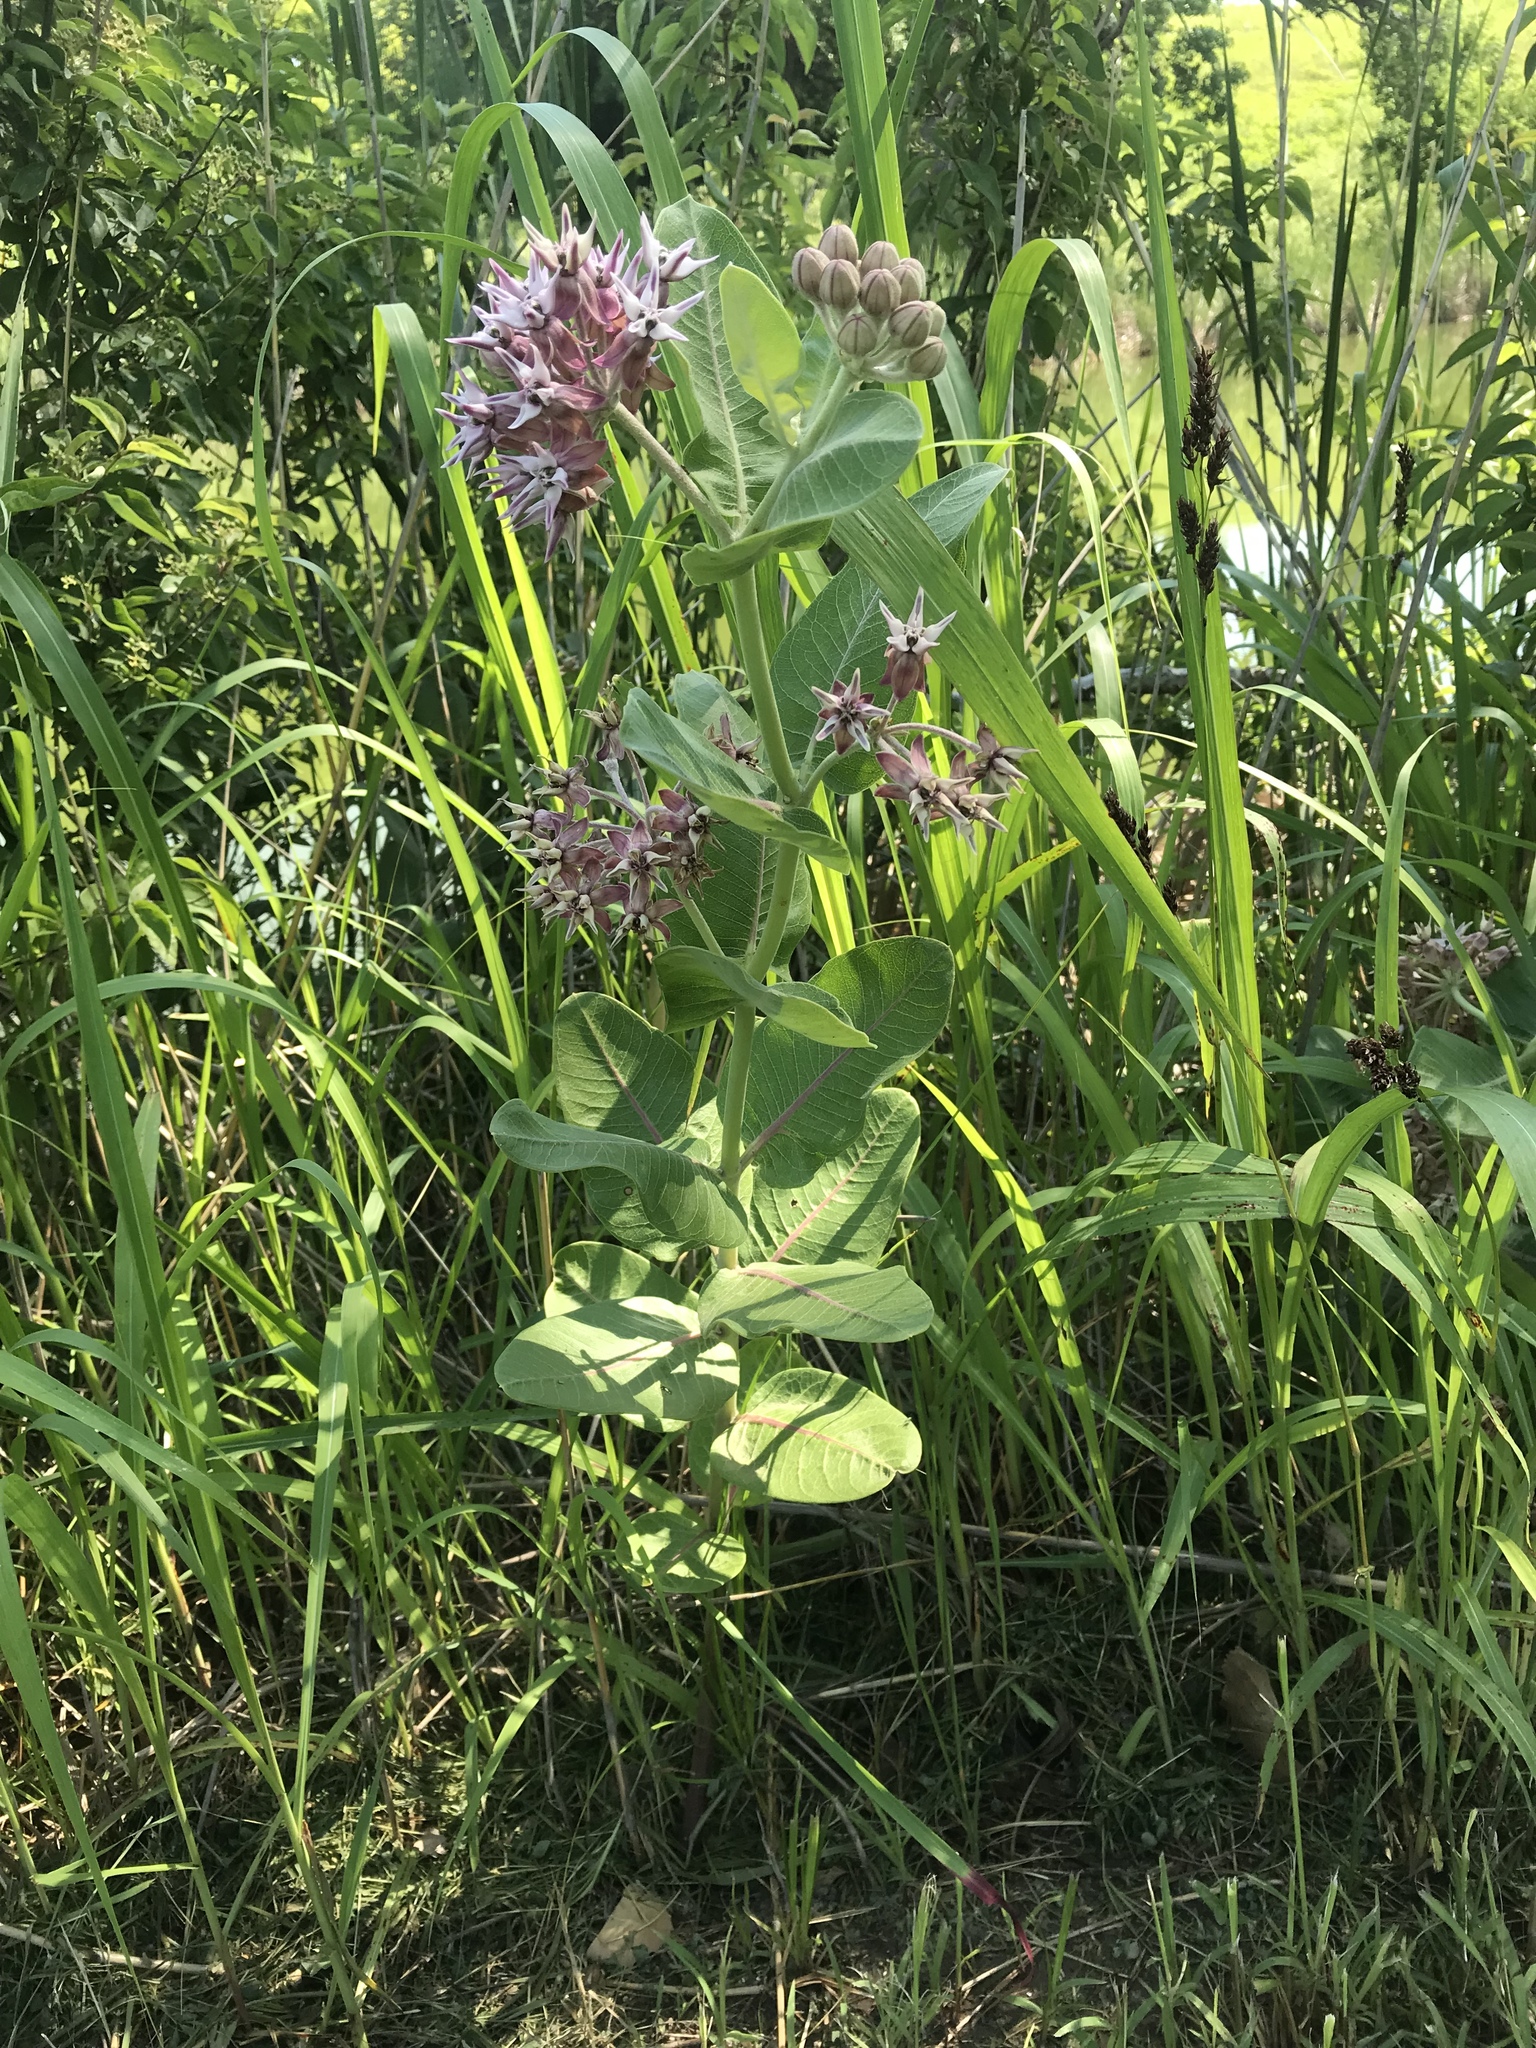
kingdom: Plantae
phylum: Tracheophyta
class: Magnoliopsida
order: Gentianales
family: Apocynaceae
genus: Asclepias
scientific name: Asclepias speciosa
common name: Showy milkweed
